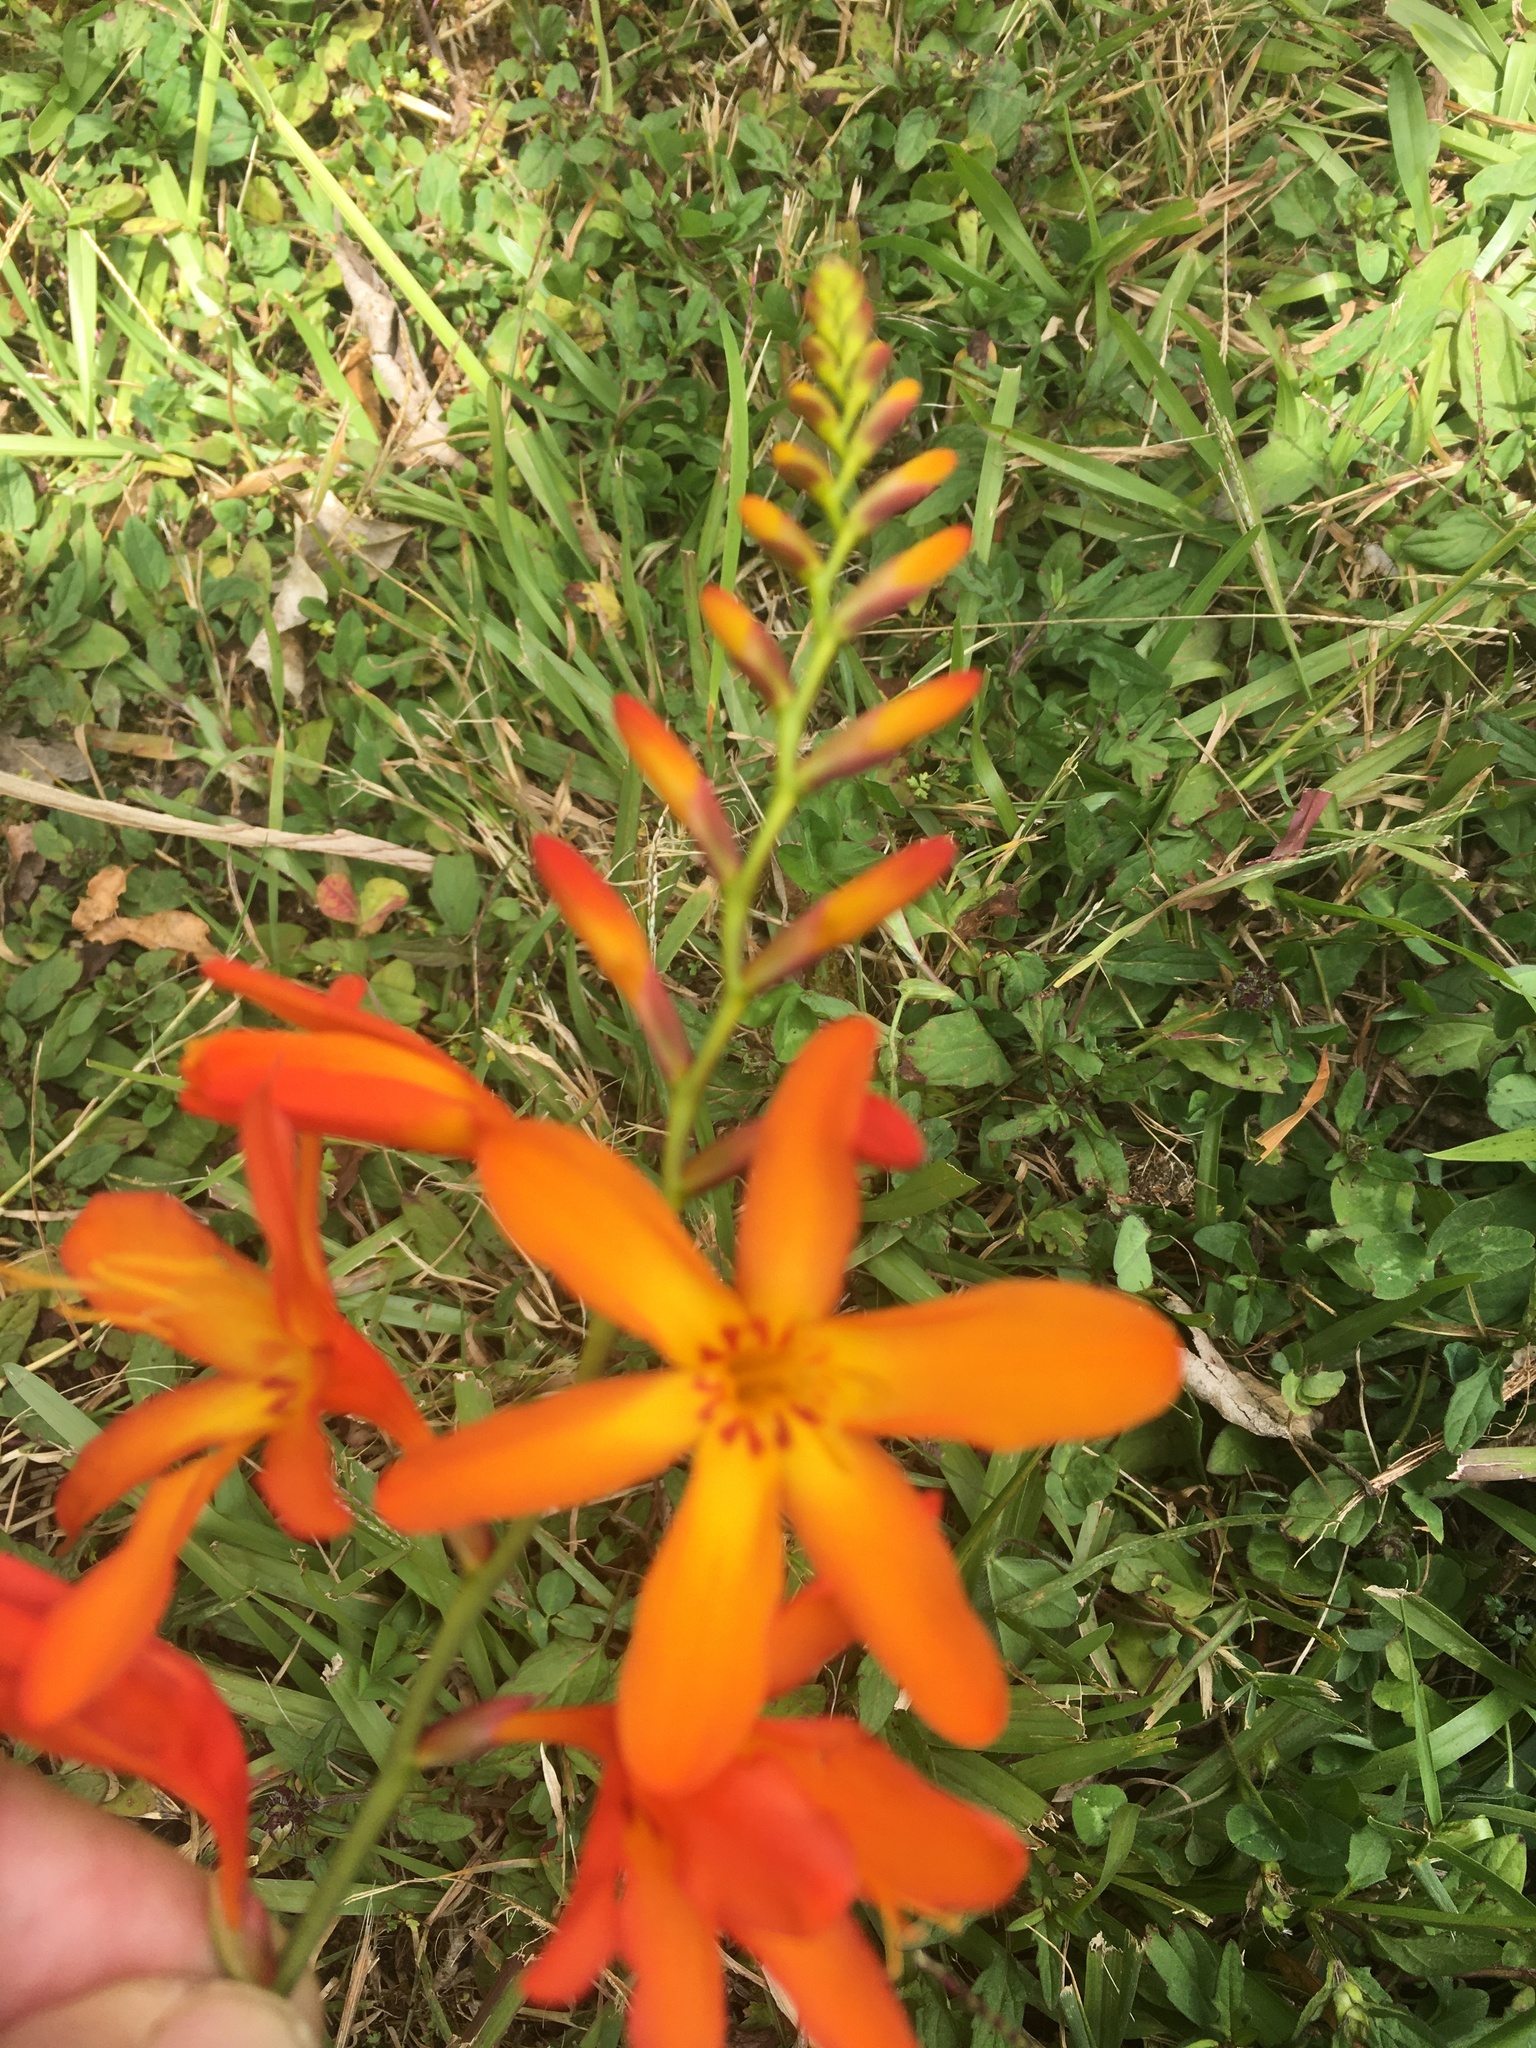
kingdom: Plantae
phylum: Tracheophyta
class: Liliopsida
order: Asparagales
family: Iridaceae
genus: Crocosmia
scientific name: Crocosmia crocosmiiflora
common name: Montbretia
